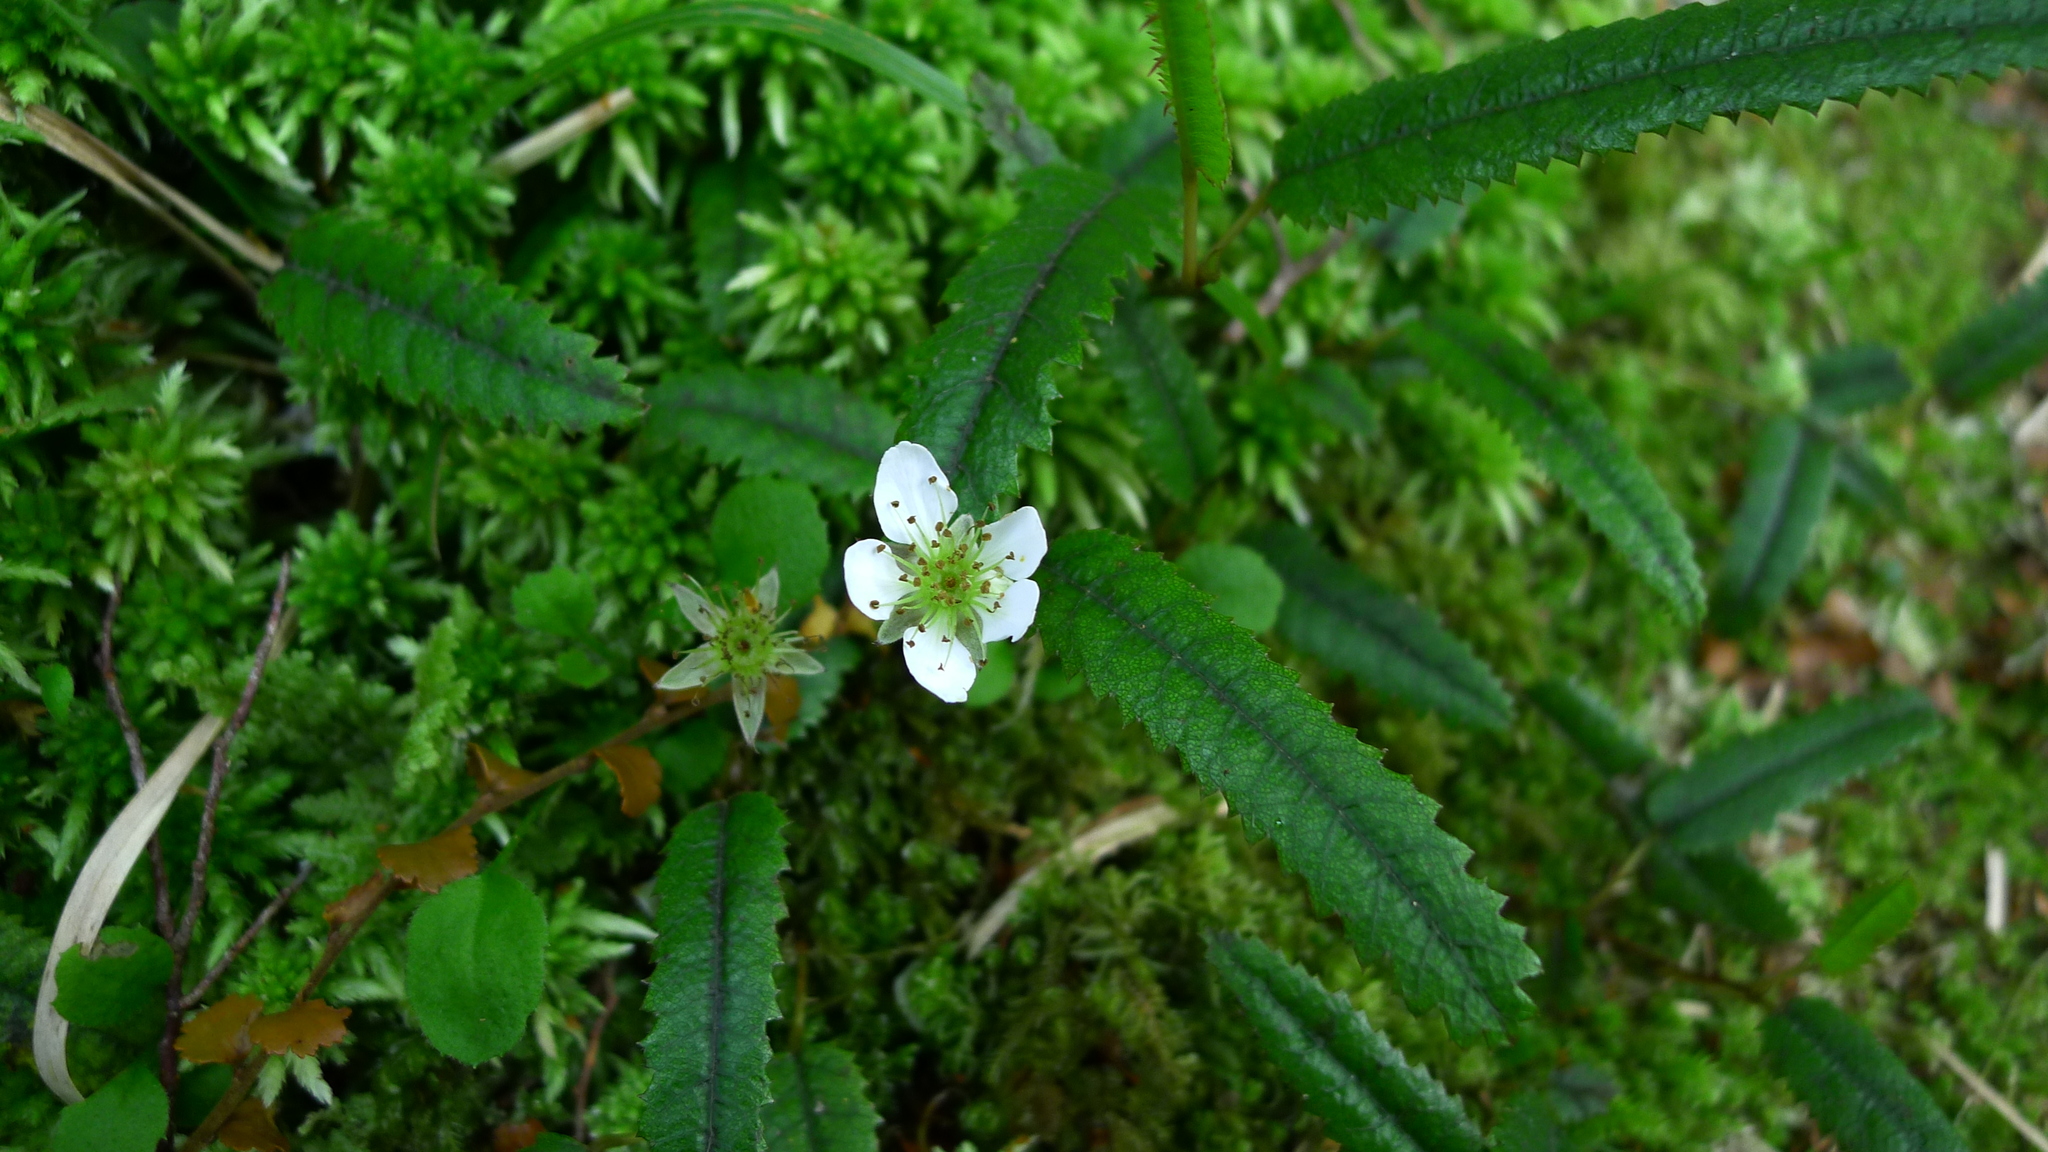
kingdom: Plantae
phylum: Tracheophyta
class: Magnoliopsida
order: Rosales
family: Rosaceae
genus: Rubus
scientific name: Rubus parvus
